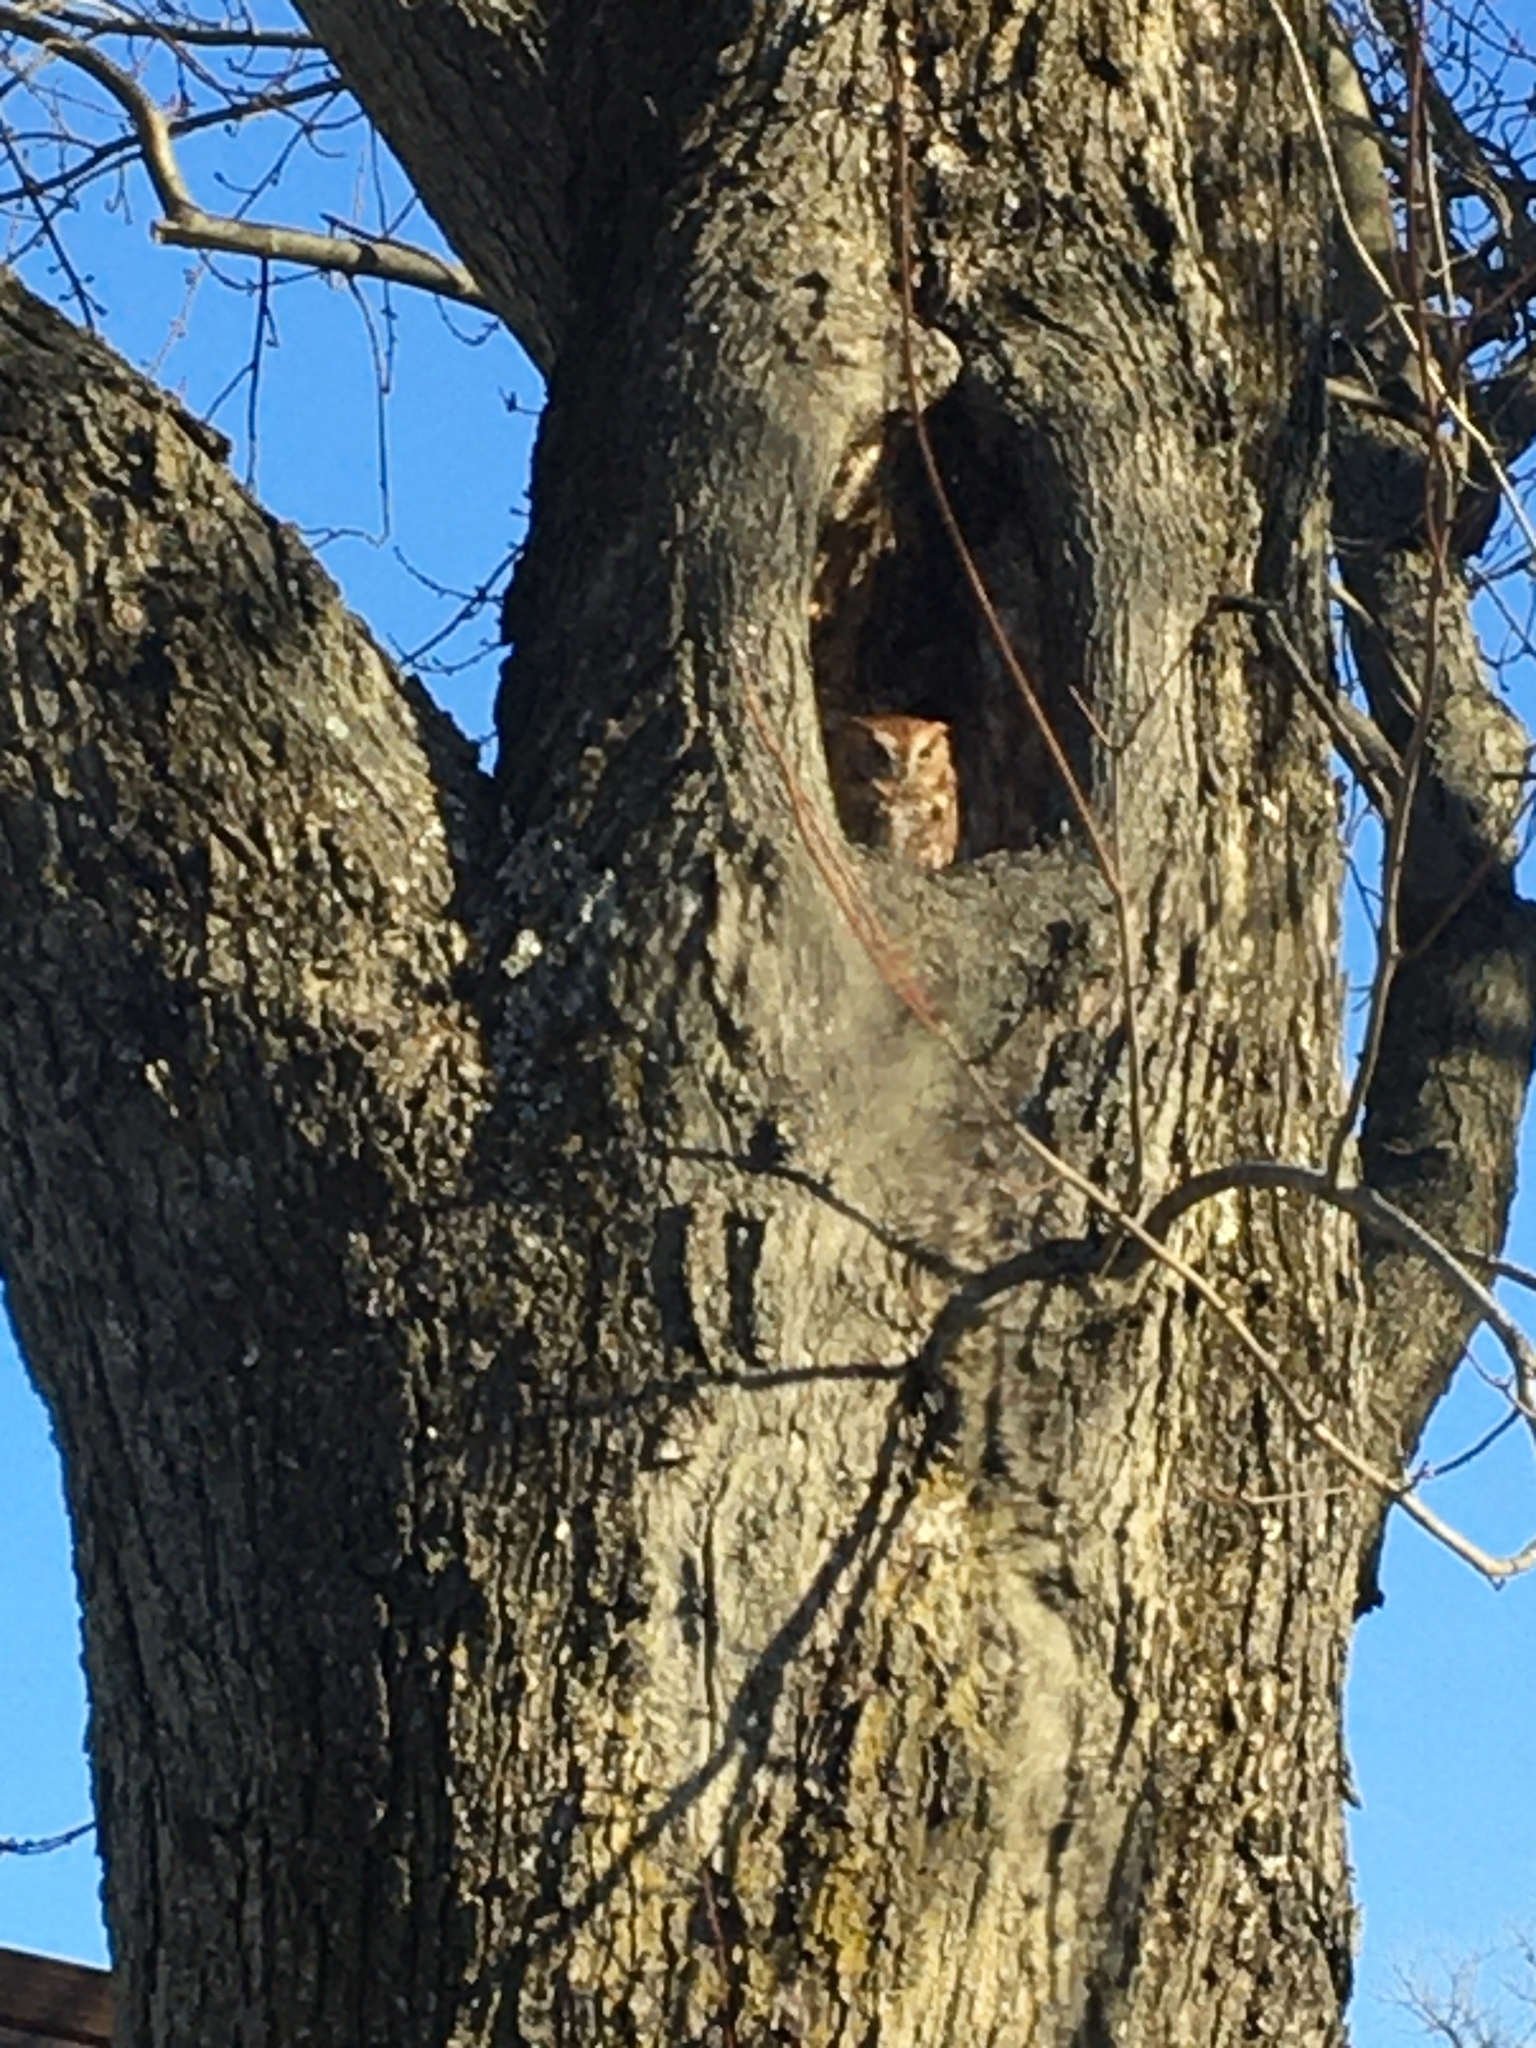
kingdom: Animalia
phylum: Chordata
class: Aves
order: Strigiformes
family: Strigidae
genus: Megascops
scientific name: Megascops asio
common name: Eastern screech-owl
